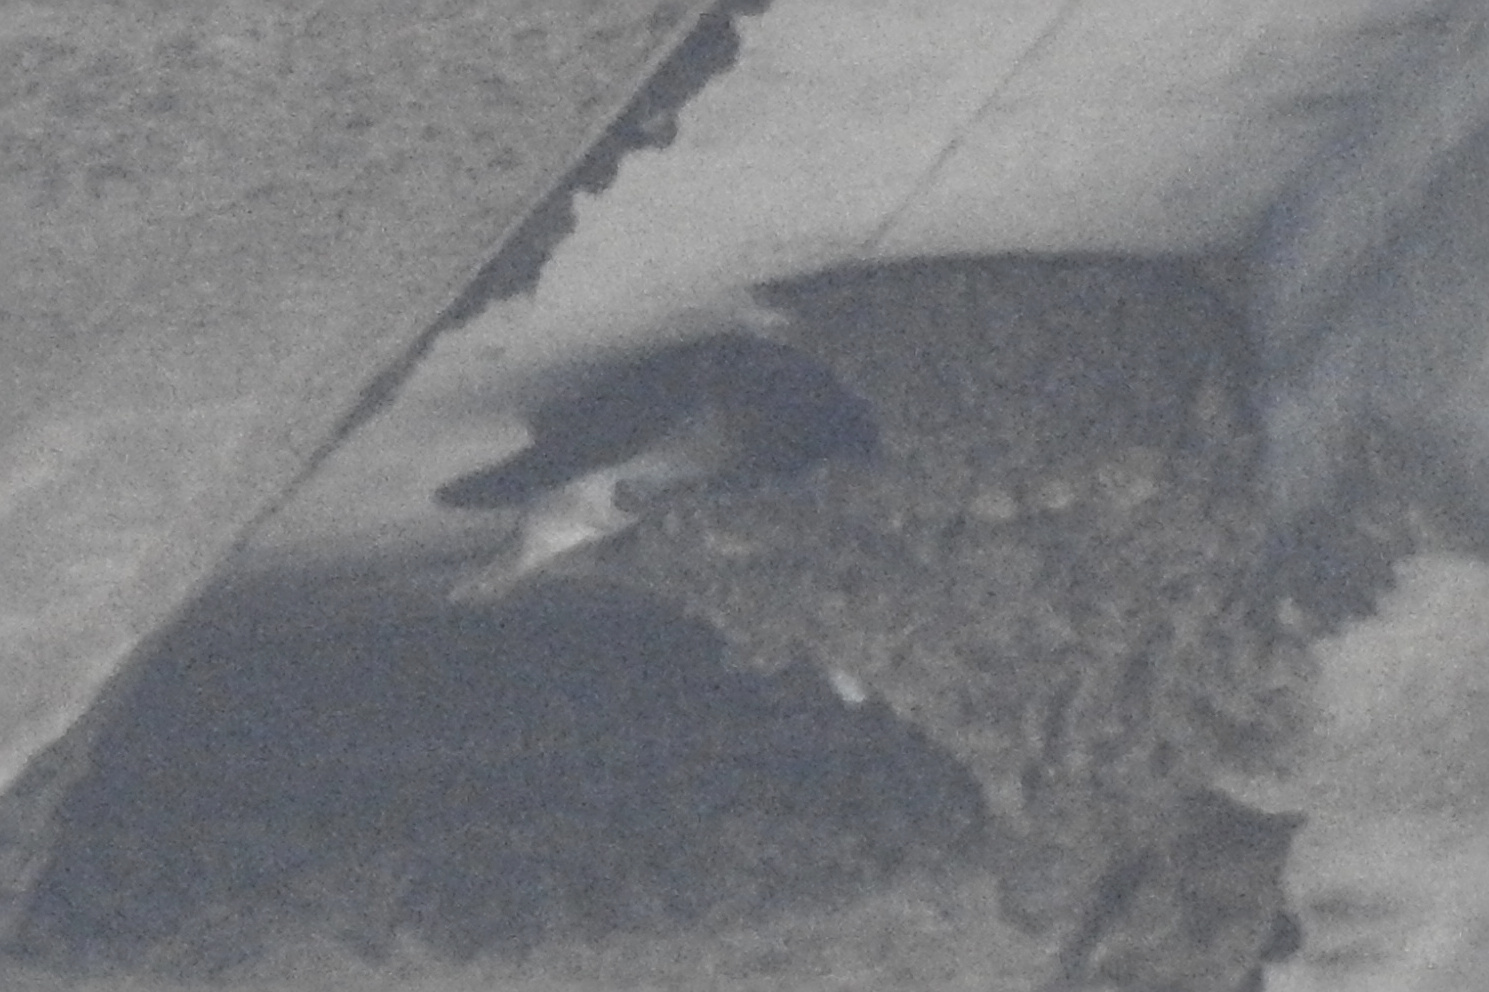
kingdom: Animalia
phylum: Chordata
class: Aves
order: Passeriformes
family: Hirundinidae
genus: Petrochelidon
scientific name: Petrochelidon pyrrhonota
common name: American cliff swallow
